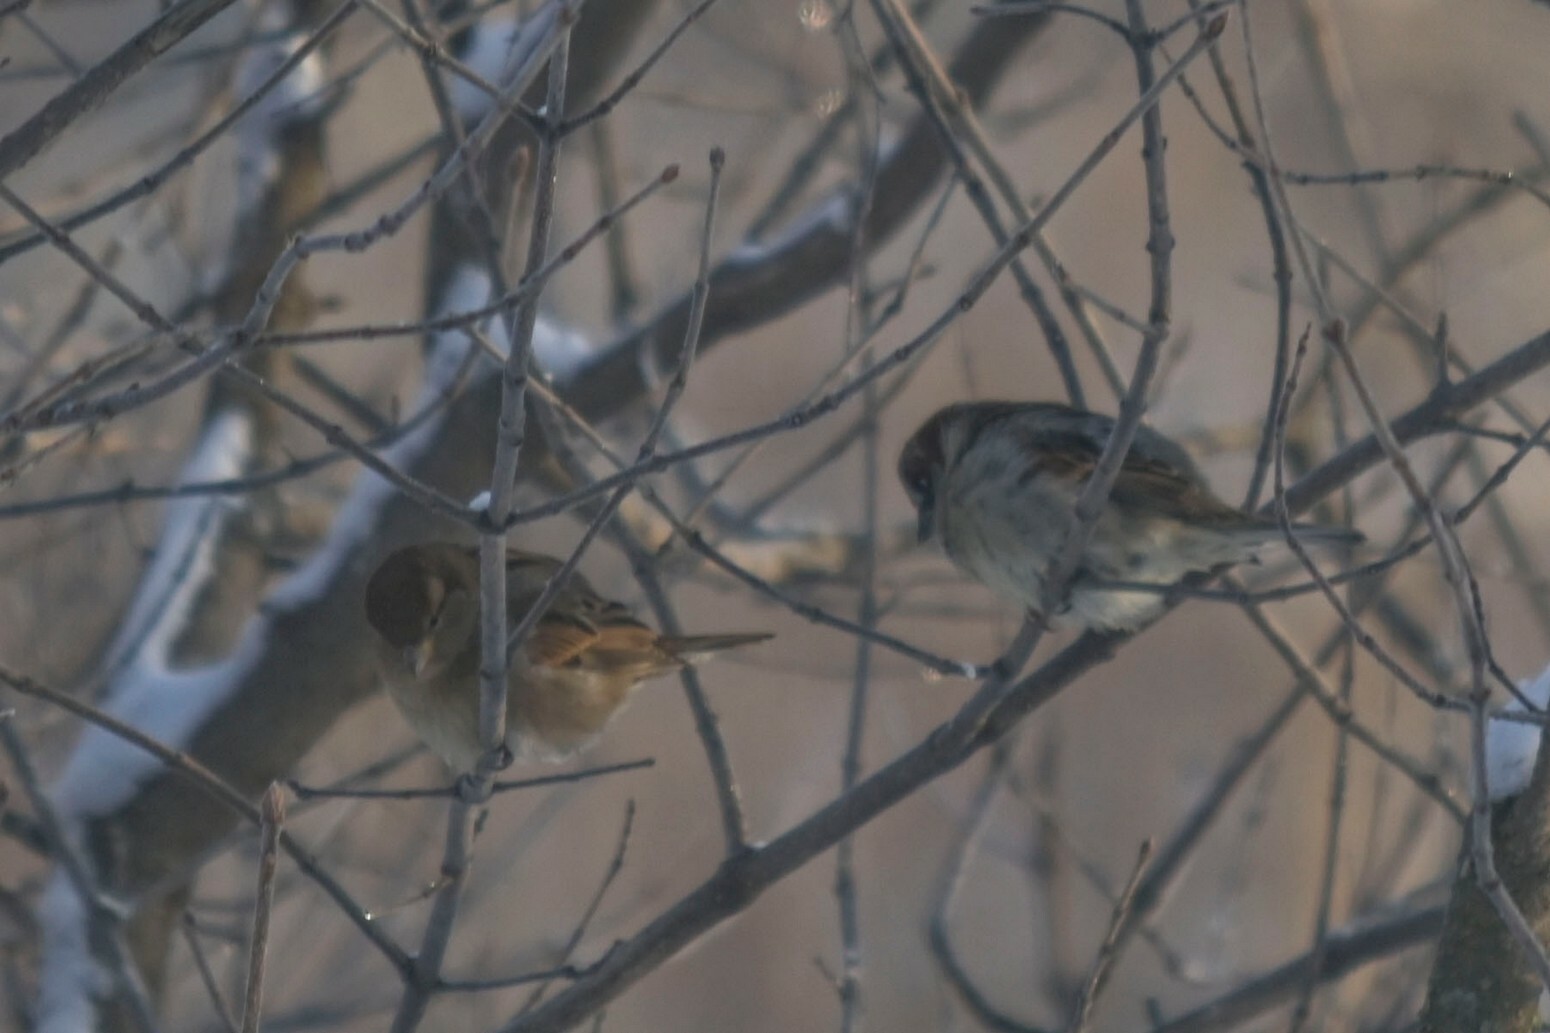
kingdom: Animalia
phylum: Chordata
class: Aves
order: Passeriformes
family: Passeridae
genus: Passer
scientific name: Passer domesticus
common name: House sparrow
